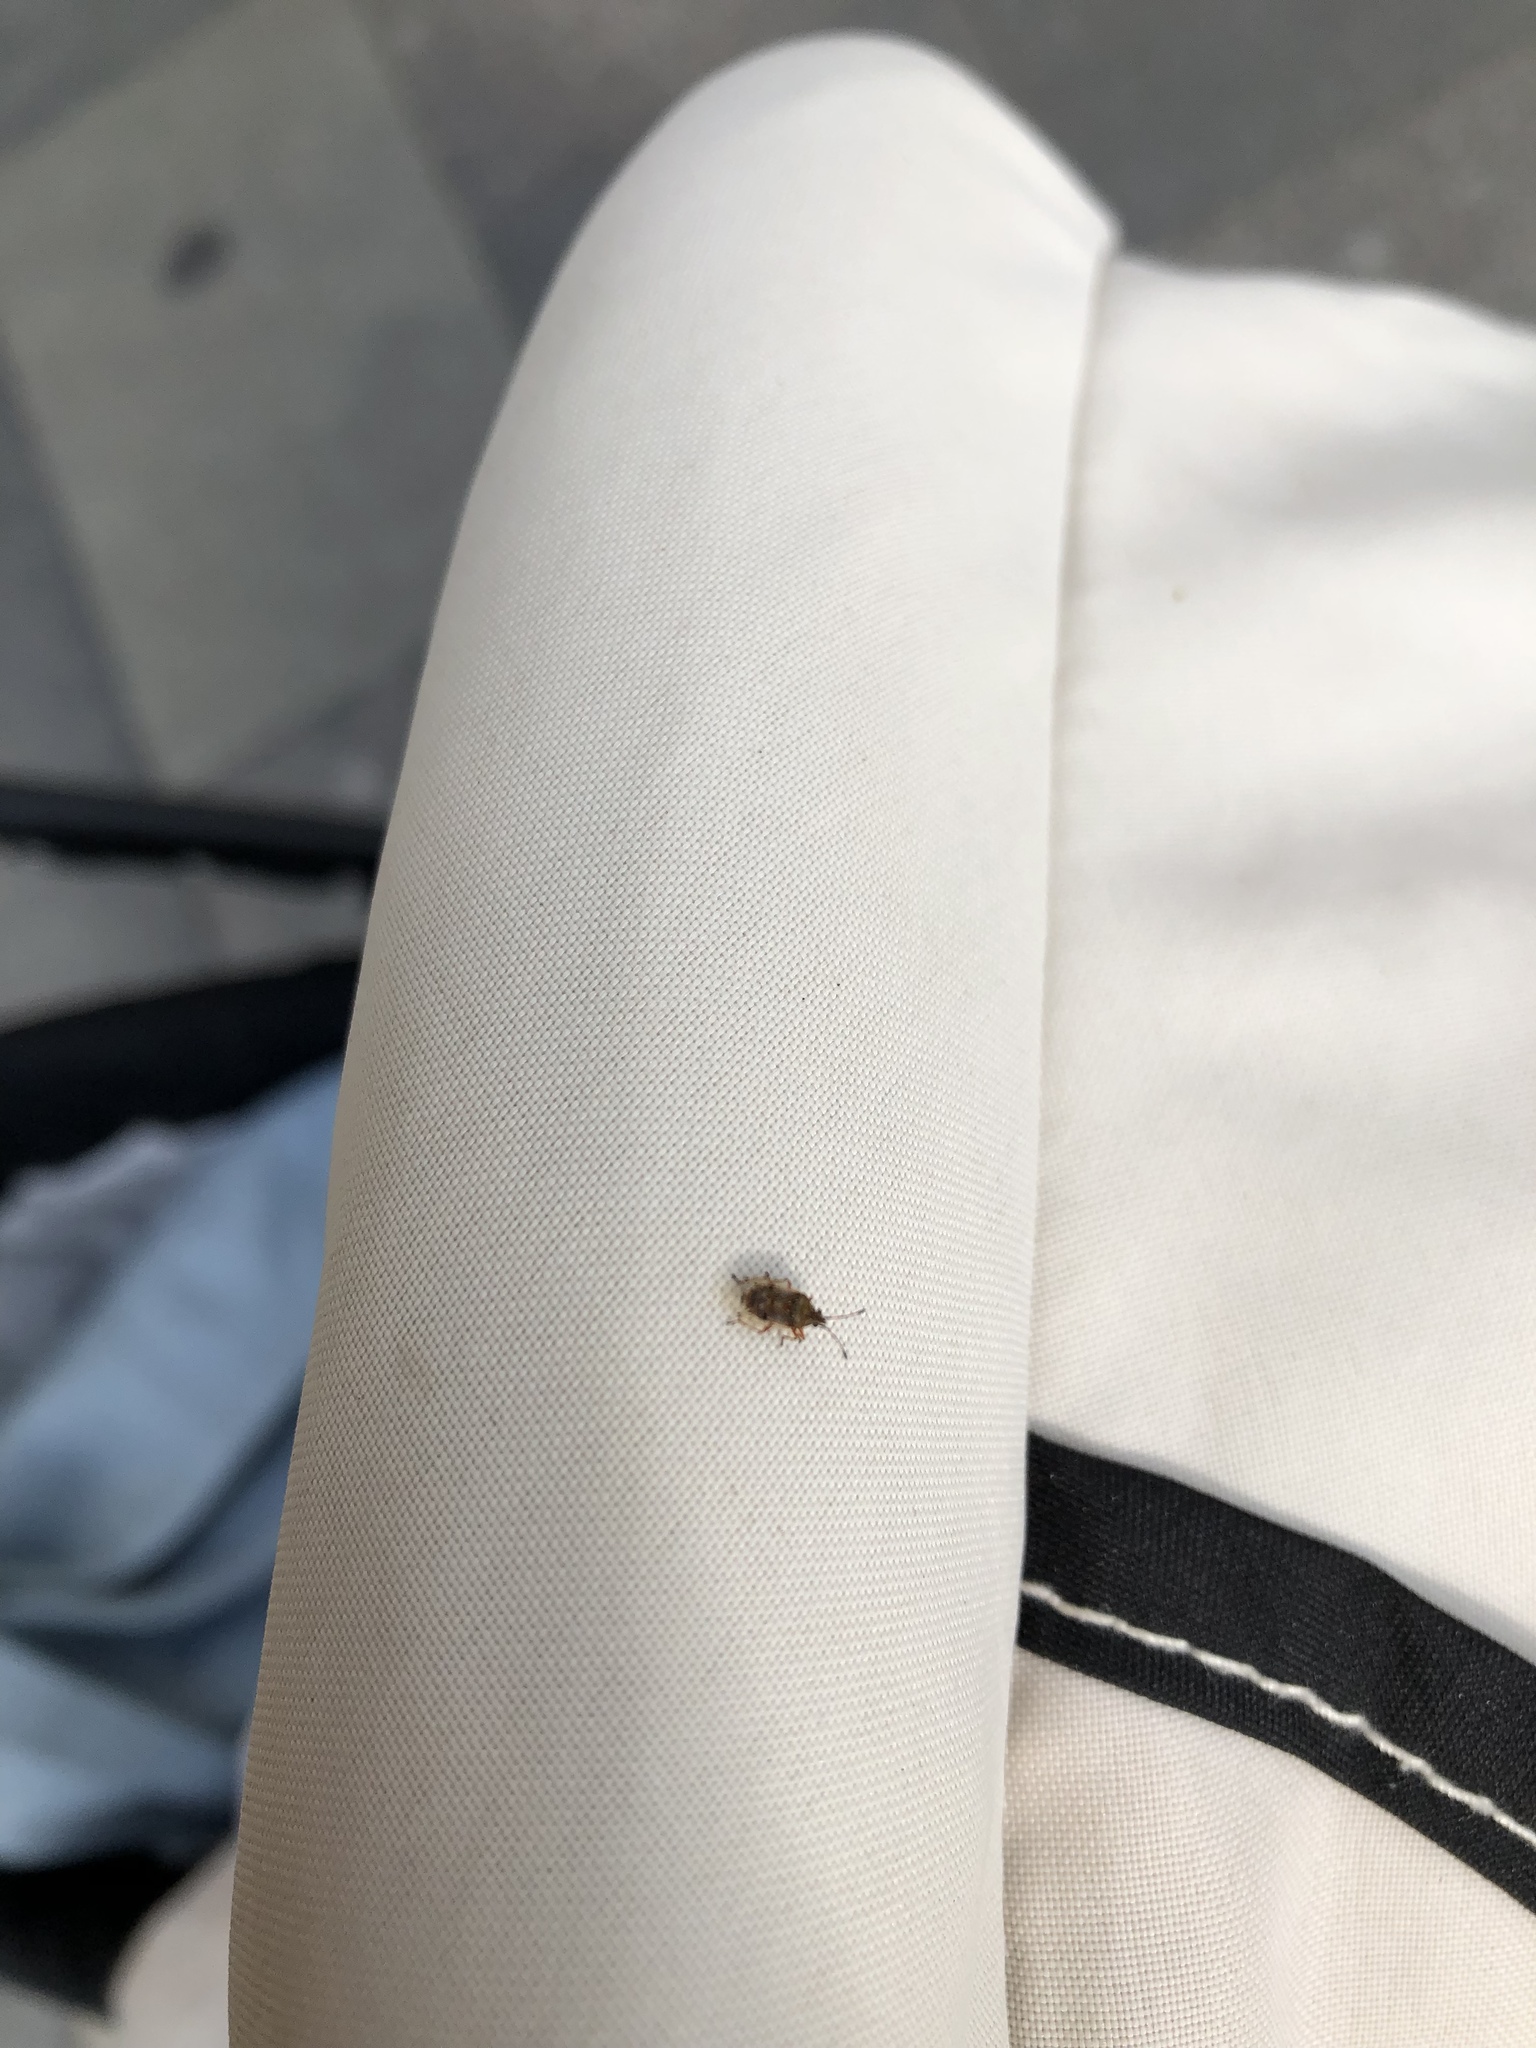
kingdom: Animalia
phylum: Arthropoda
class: Insecta
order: Hemiptera
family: Lygaeidae
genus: Kleidocerys
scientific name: Kleidocerys resedae
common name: Birch catkin bug
